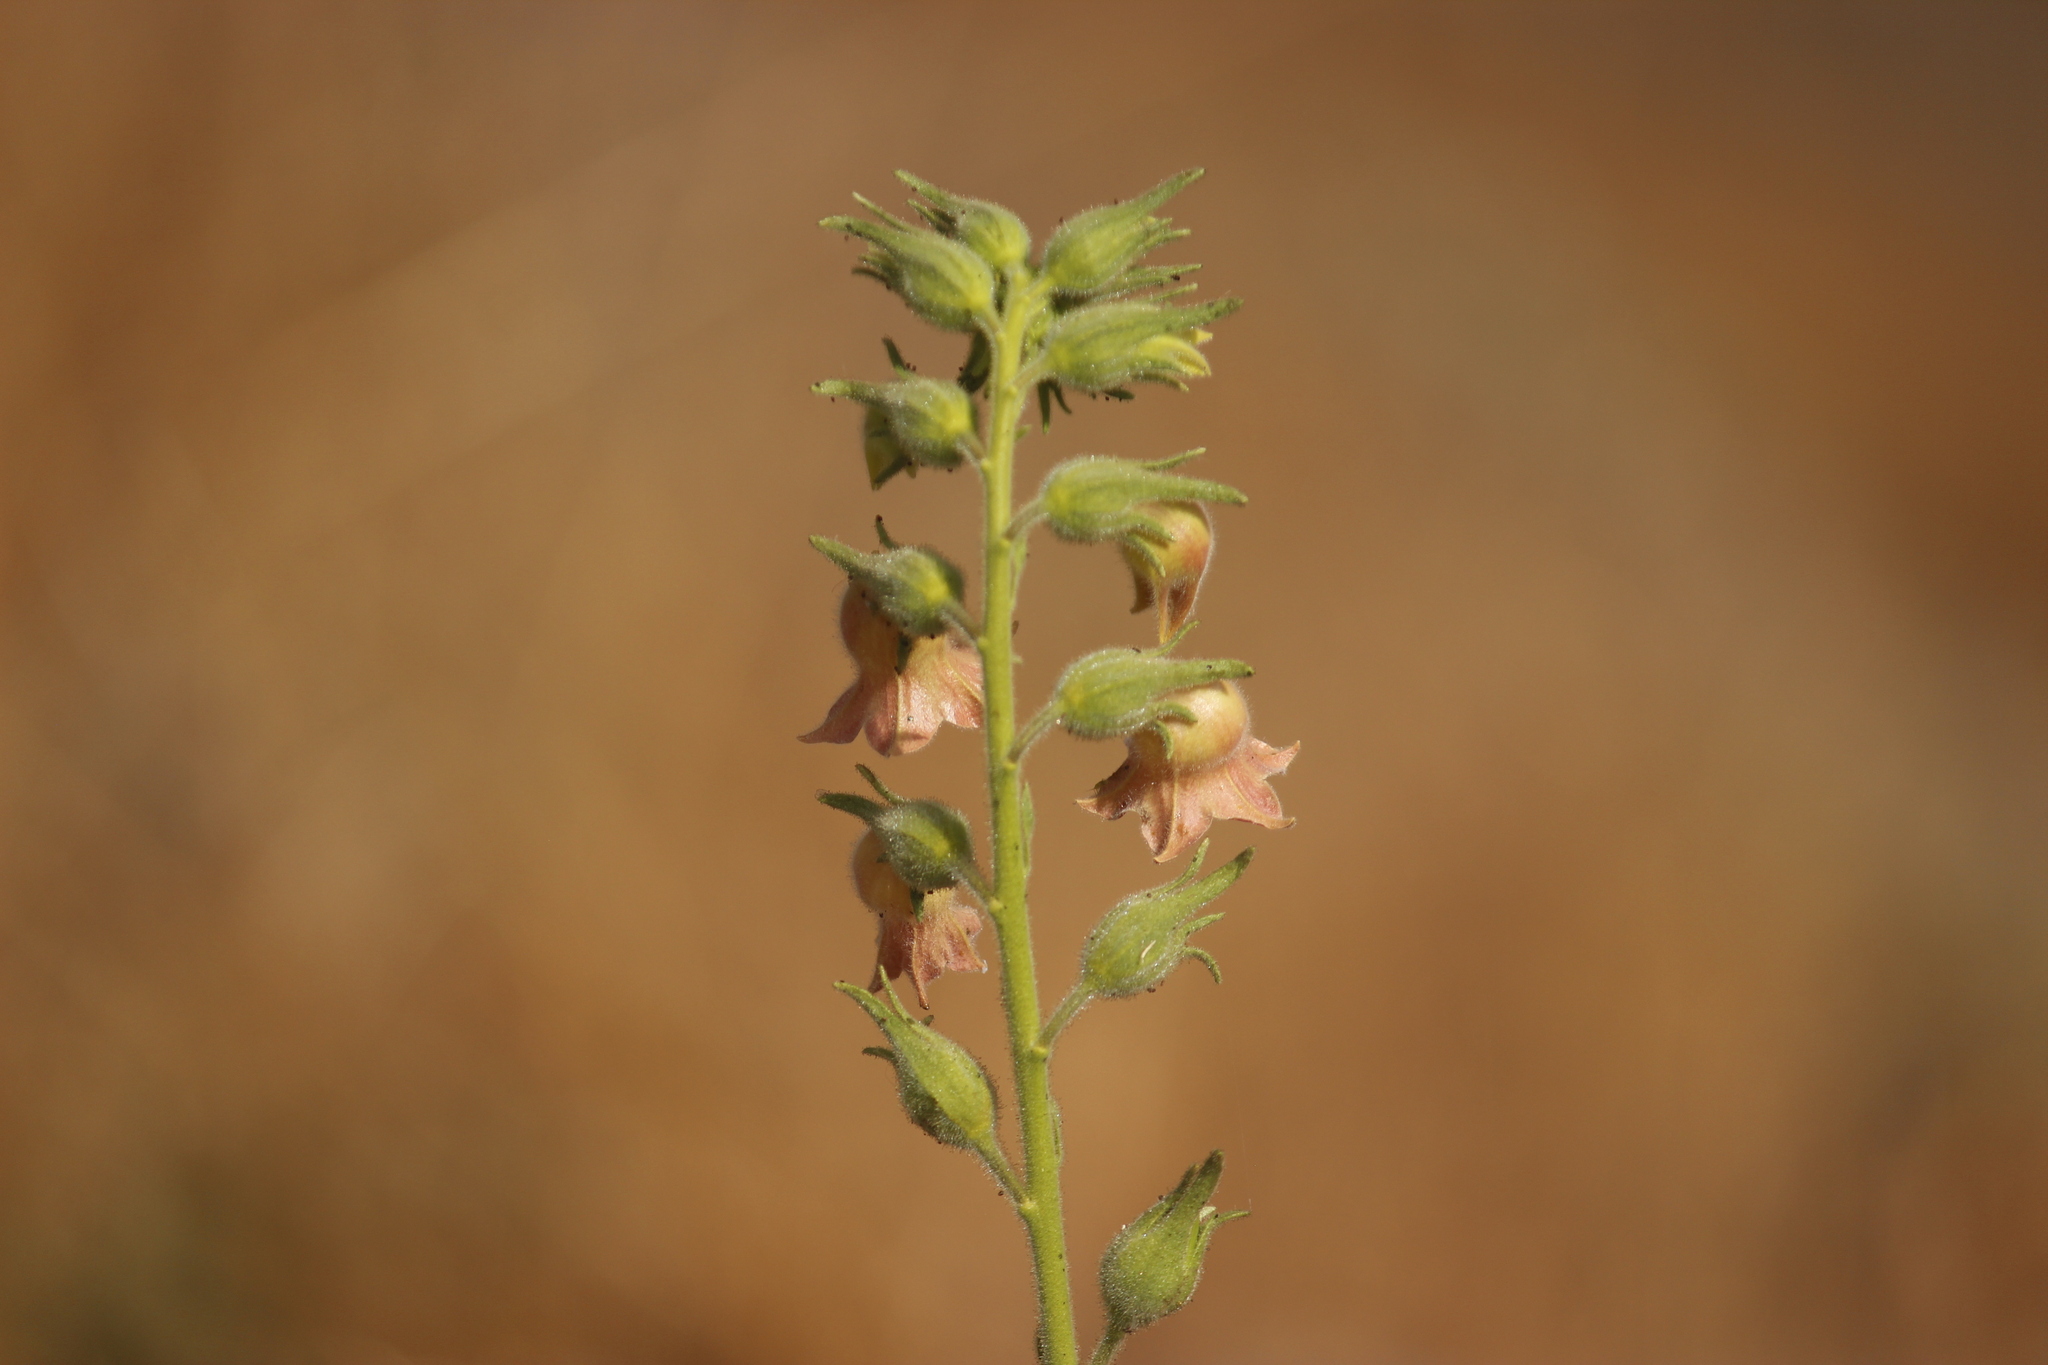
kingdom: Plantae
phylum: Tracheophyta
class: Magnoliopsida
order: Solanales
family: Solanaceae
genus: Nicotiana
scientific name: Nicotiana glutinosa
